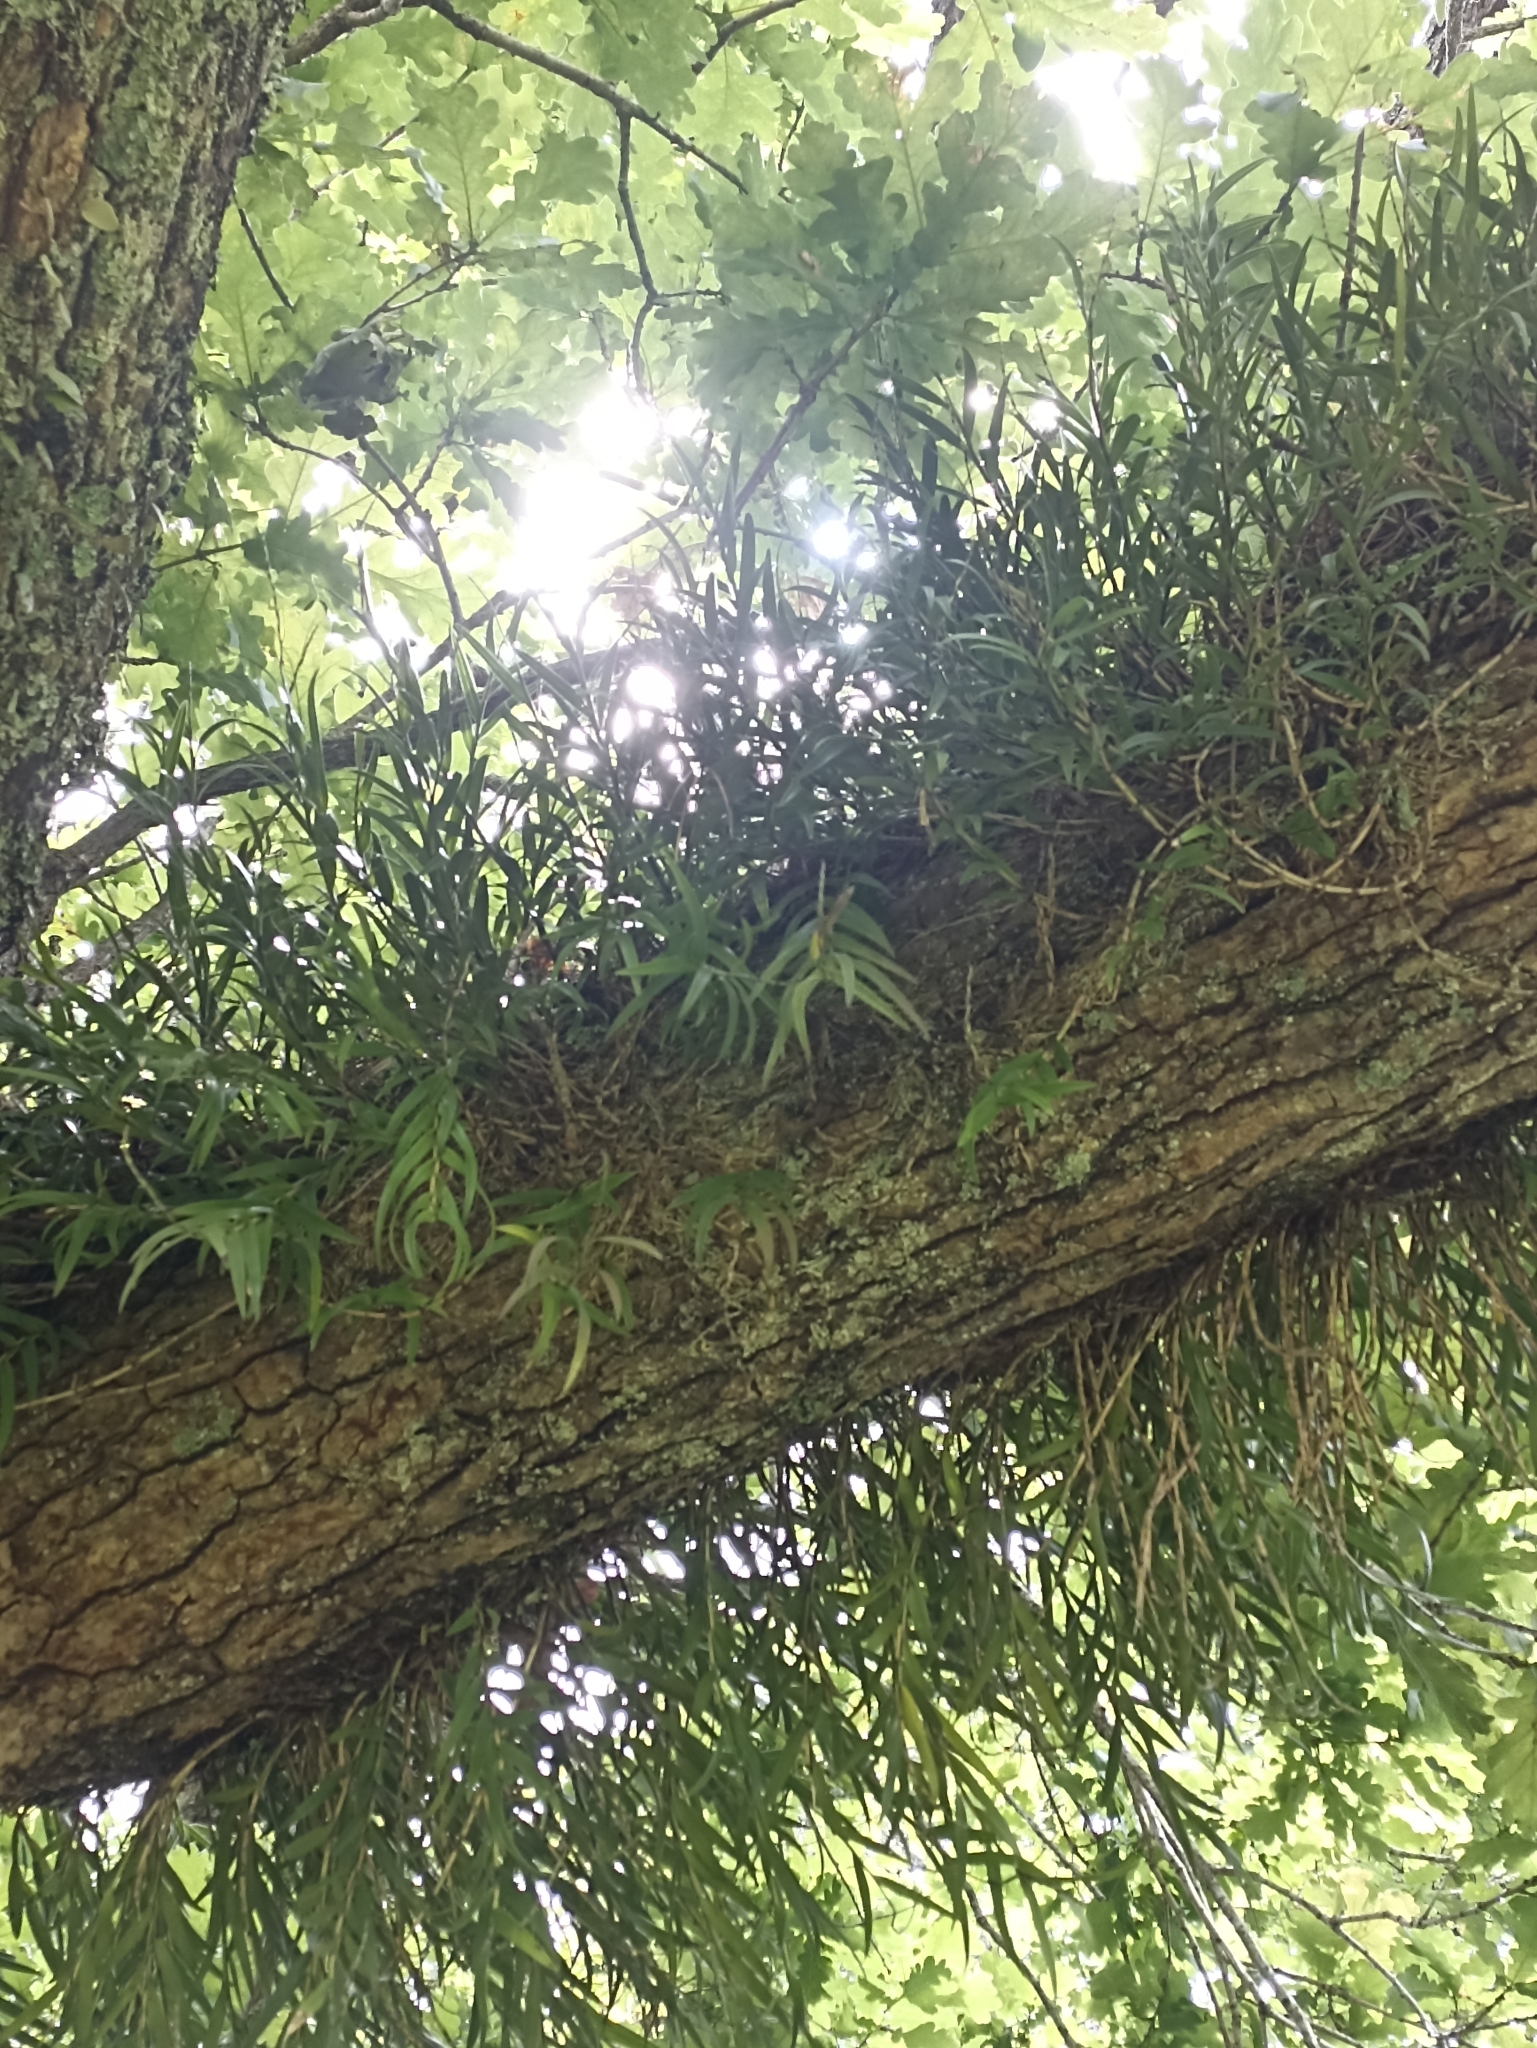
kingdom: Plantae
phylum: Tracheophyta
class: Liliopsida
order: Asparagales
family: Orchidaceae
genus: Earina
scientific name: Earina autumnalis
